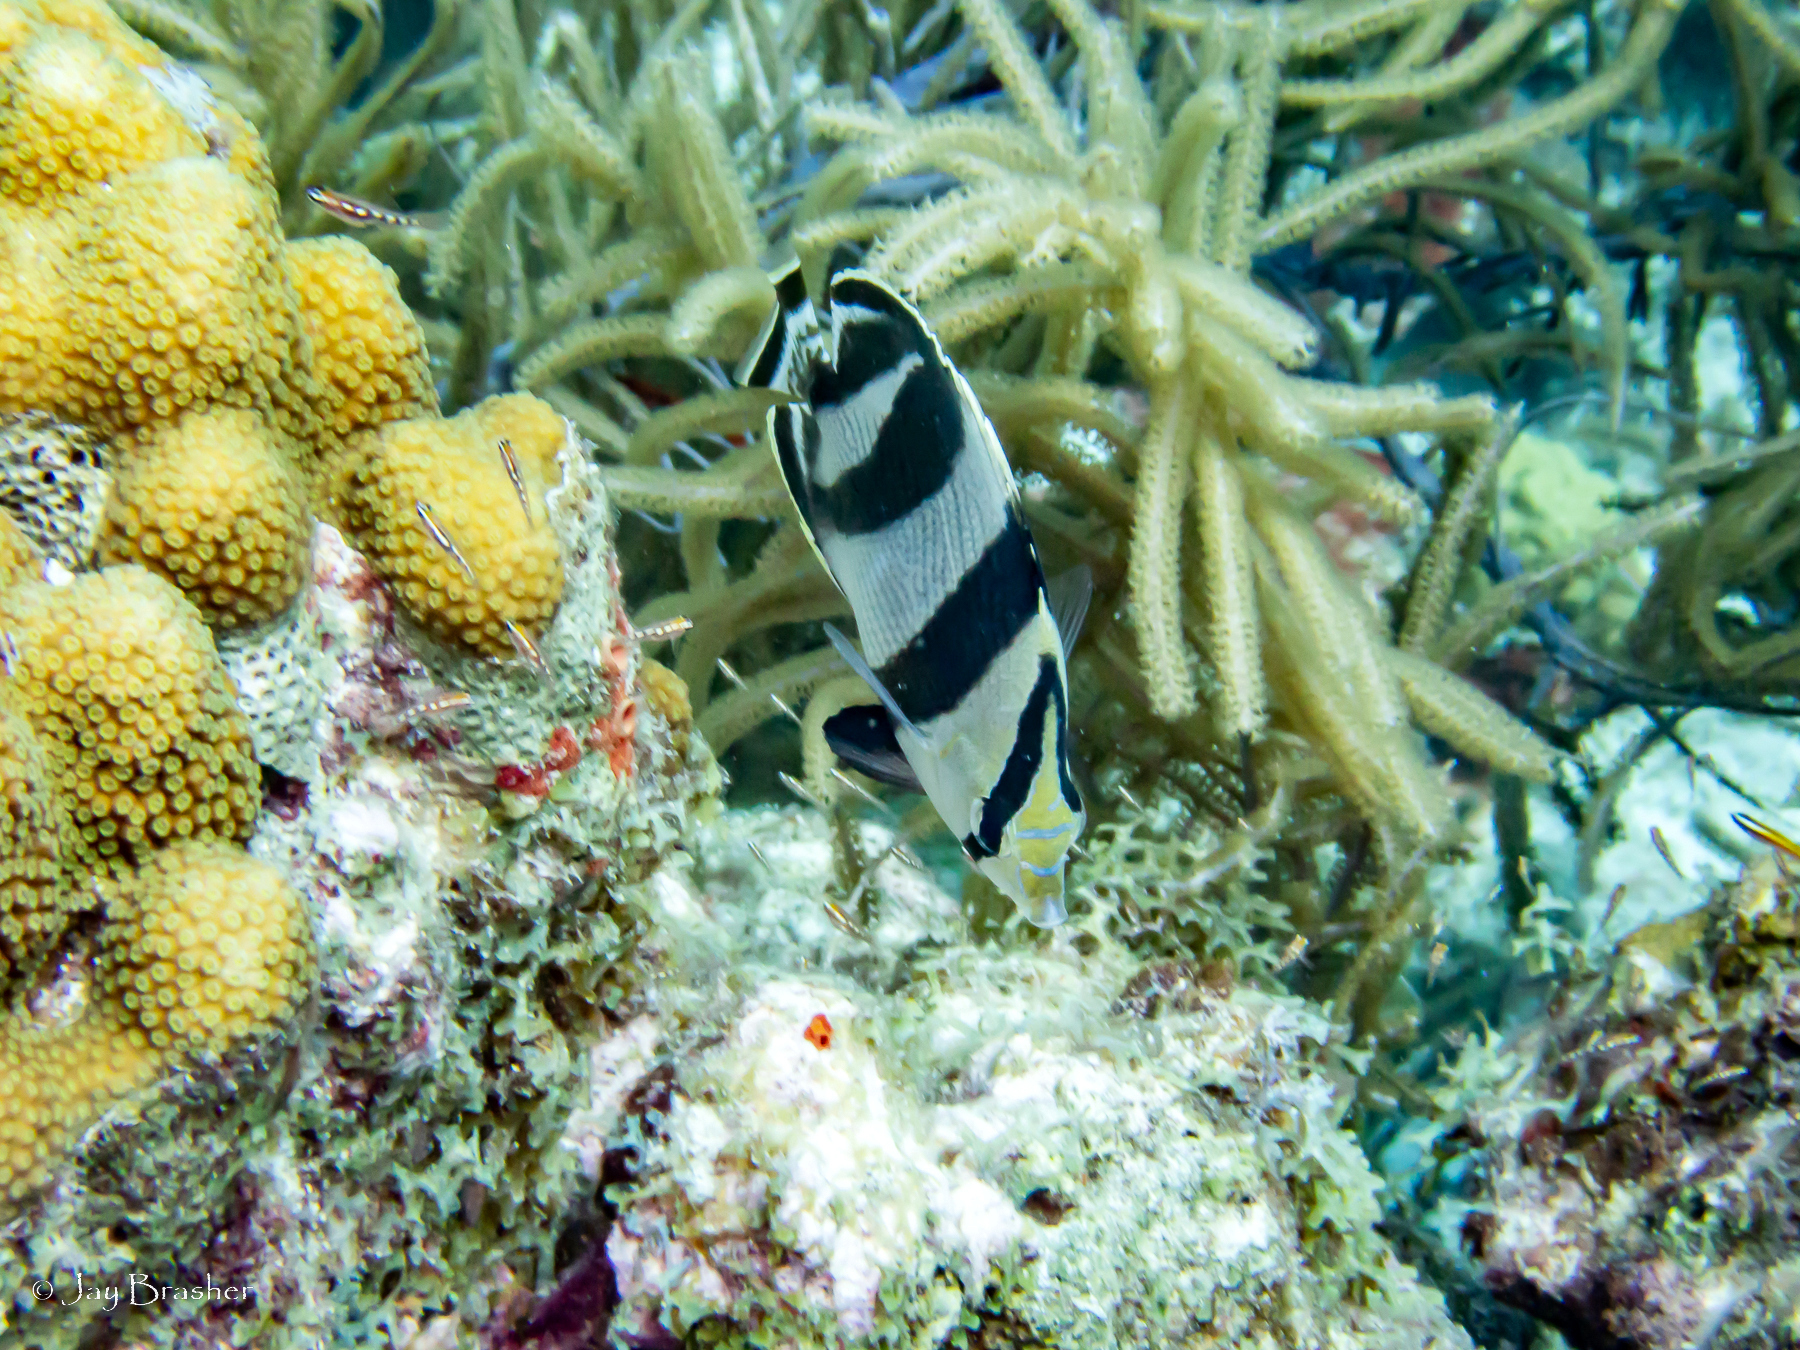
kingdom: Animalia
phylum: Chordata
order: Perciformes
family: Chaetodontidae
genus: Chaetodon
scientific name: Chaetodon striatus
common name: Banded butterflyfish
